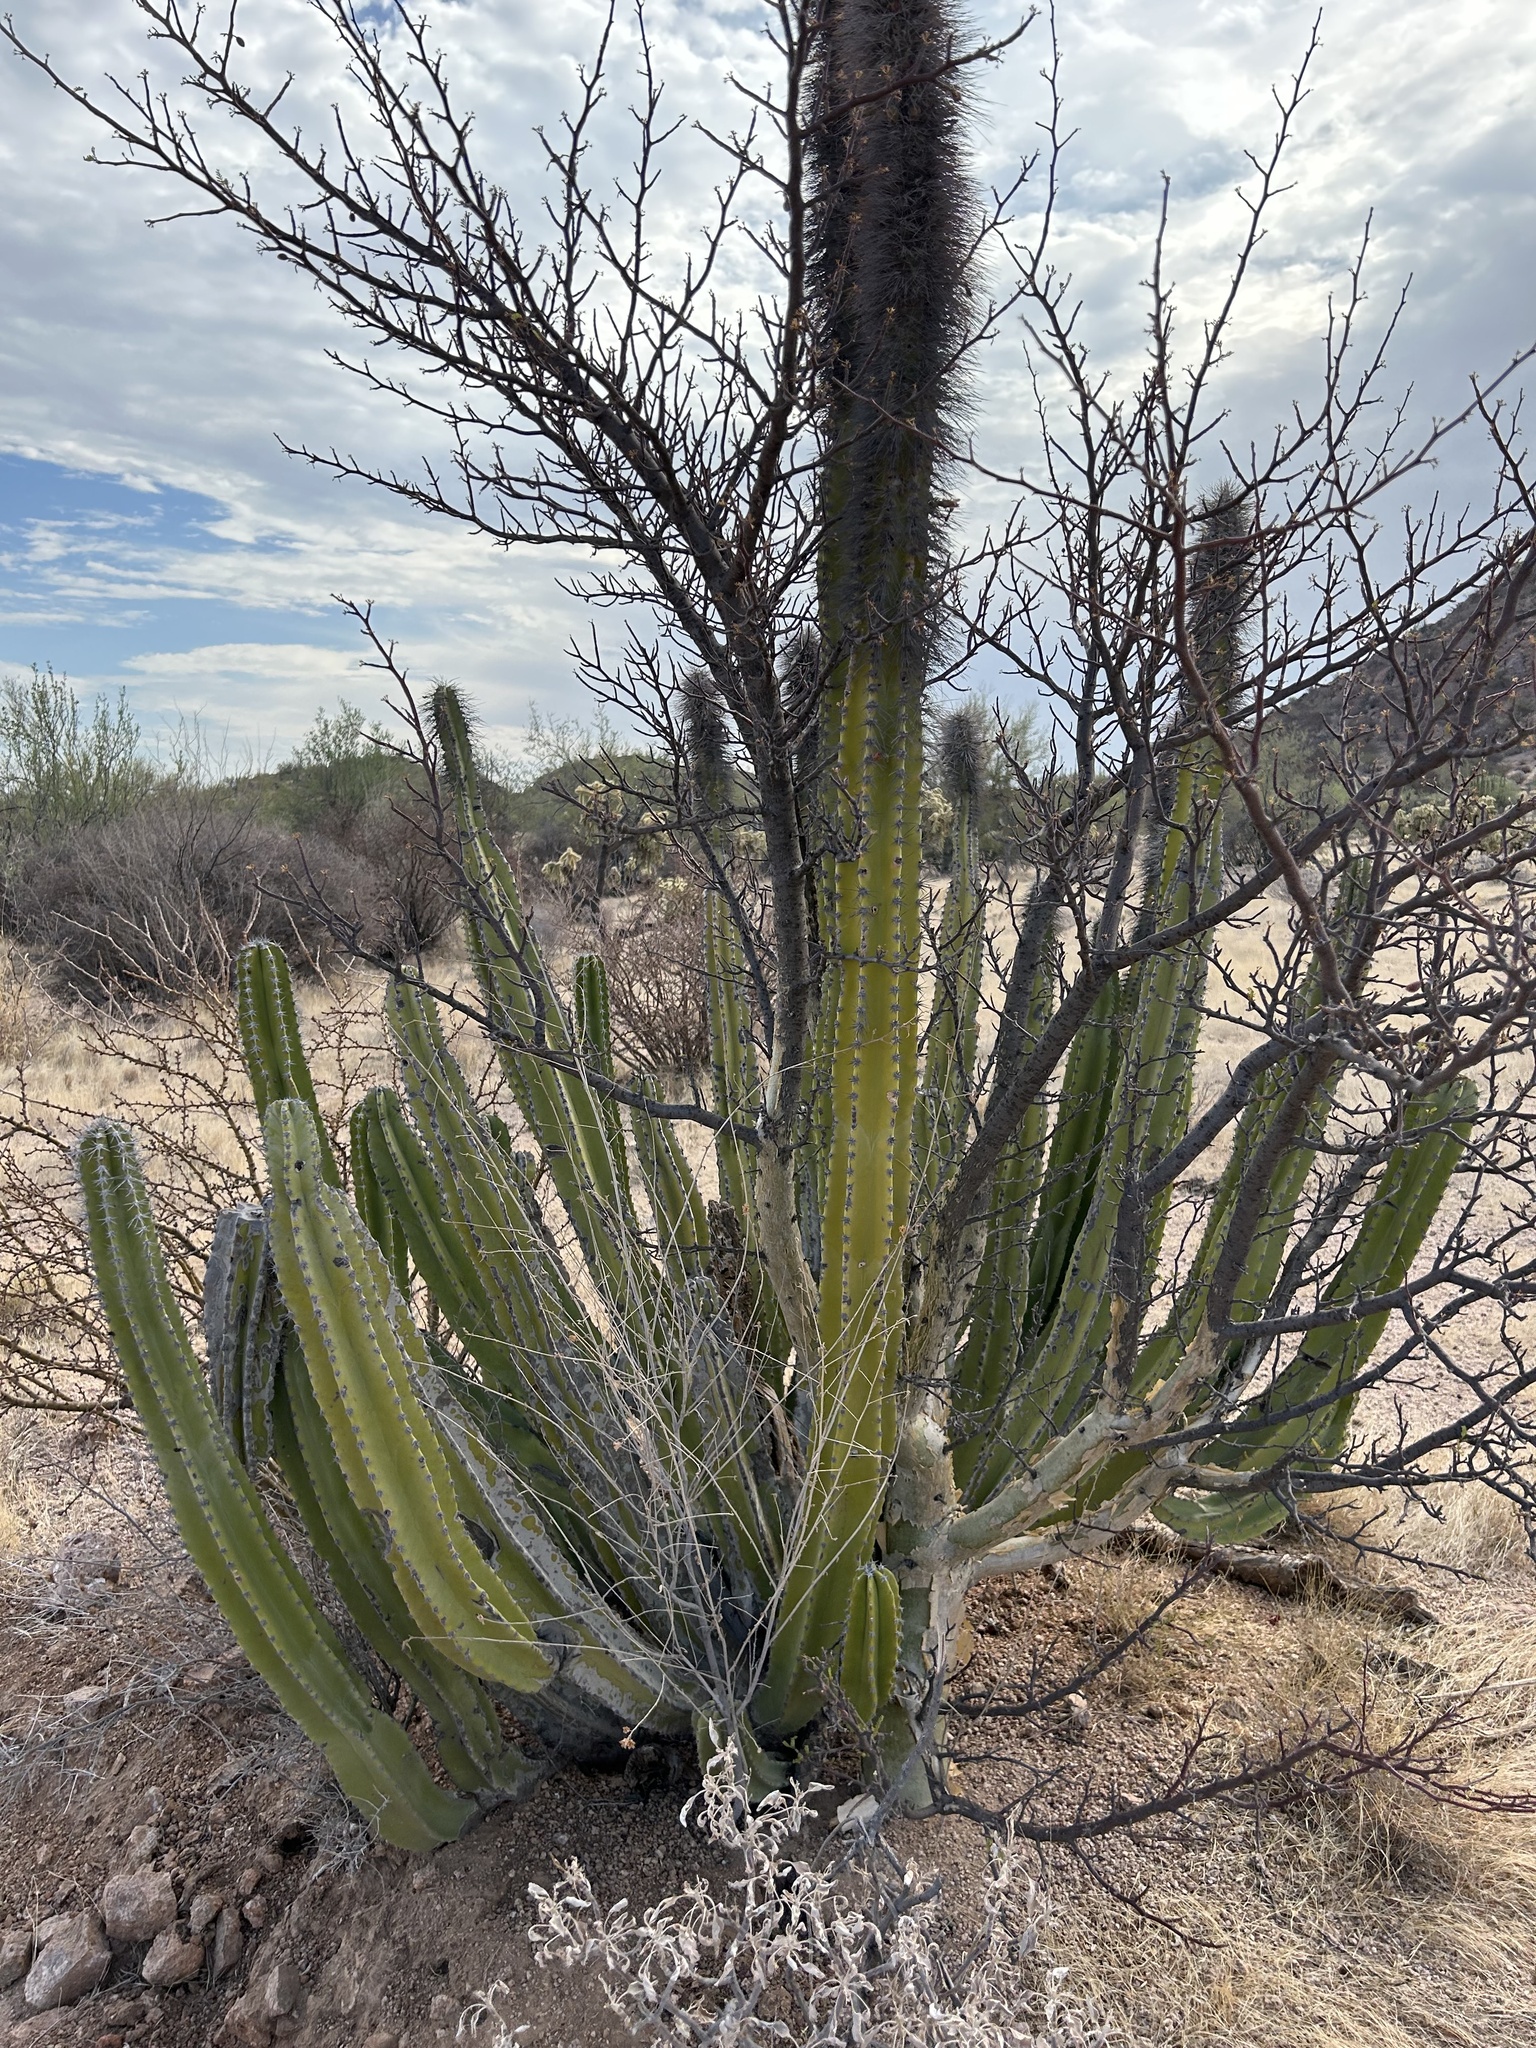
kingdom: Plantae
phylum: Tracheophyta
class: Magnoliopsida
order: Caryophyllales
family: Cactaceae
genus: Pachycereus
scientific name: Pachycereus schottii
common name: Senita cactus
